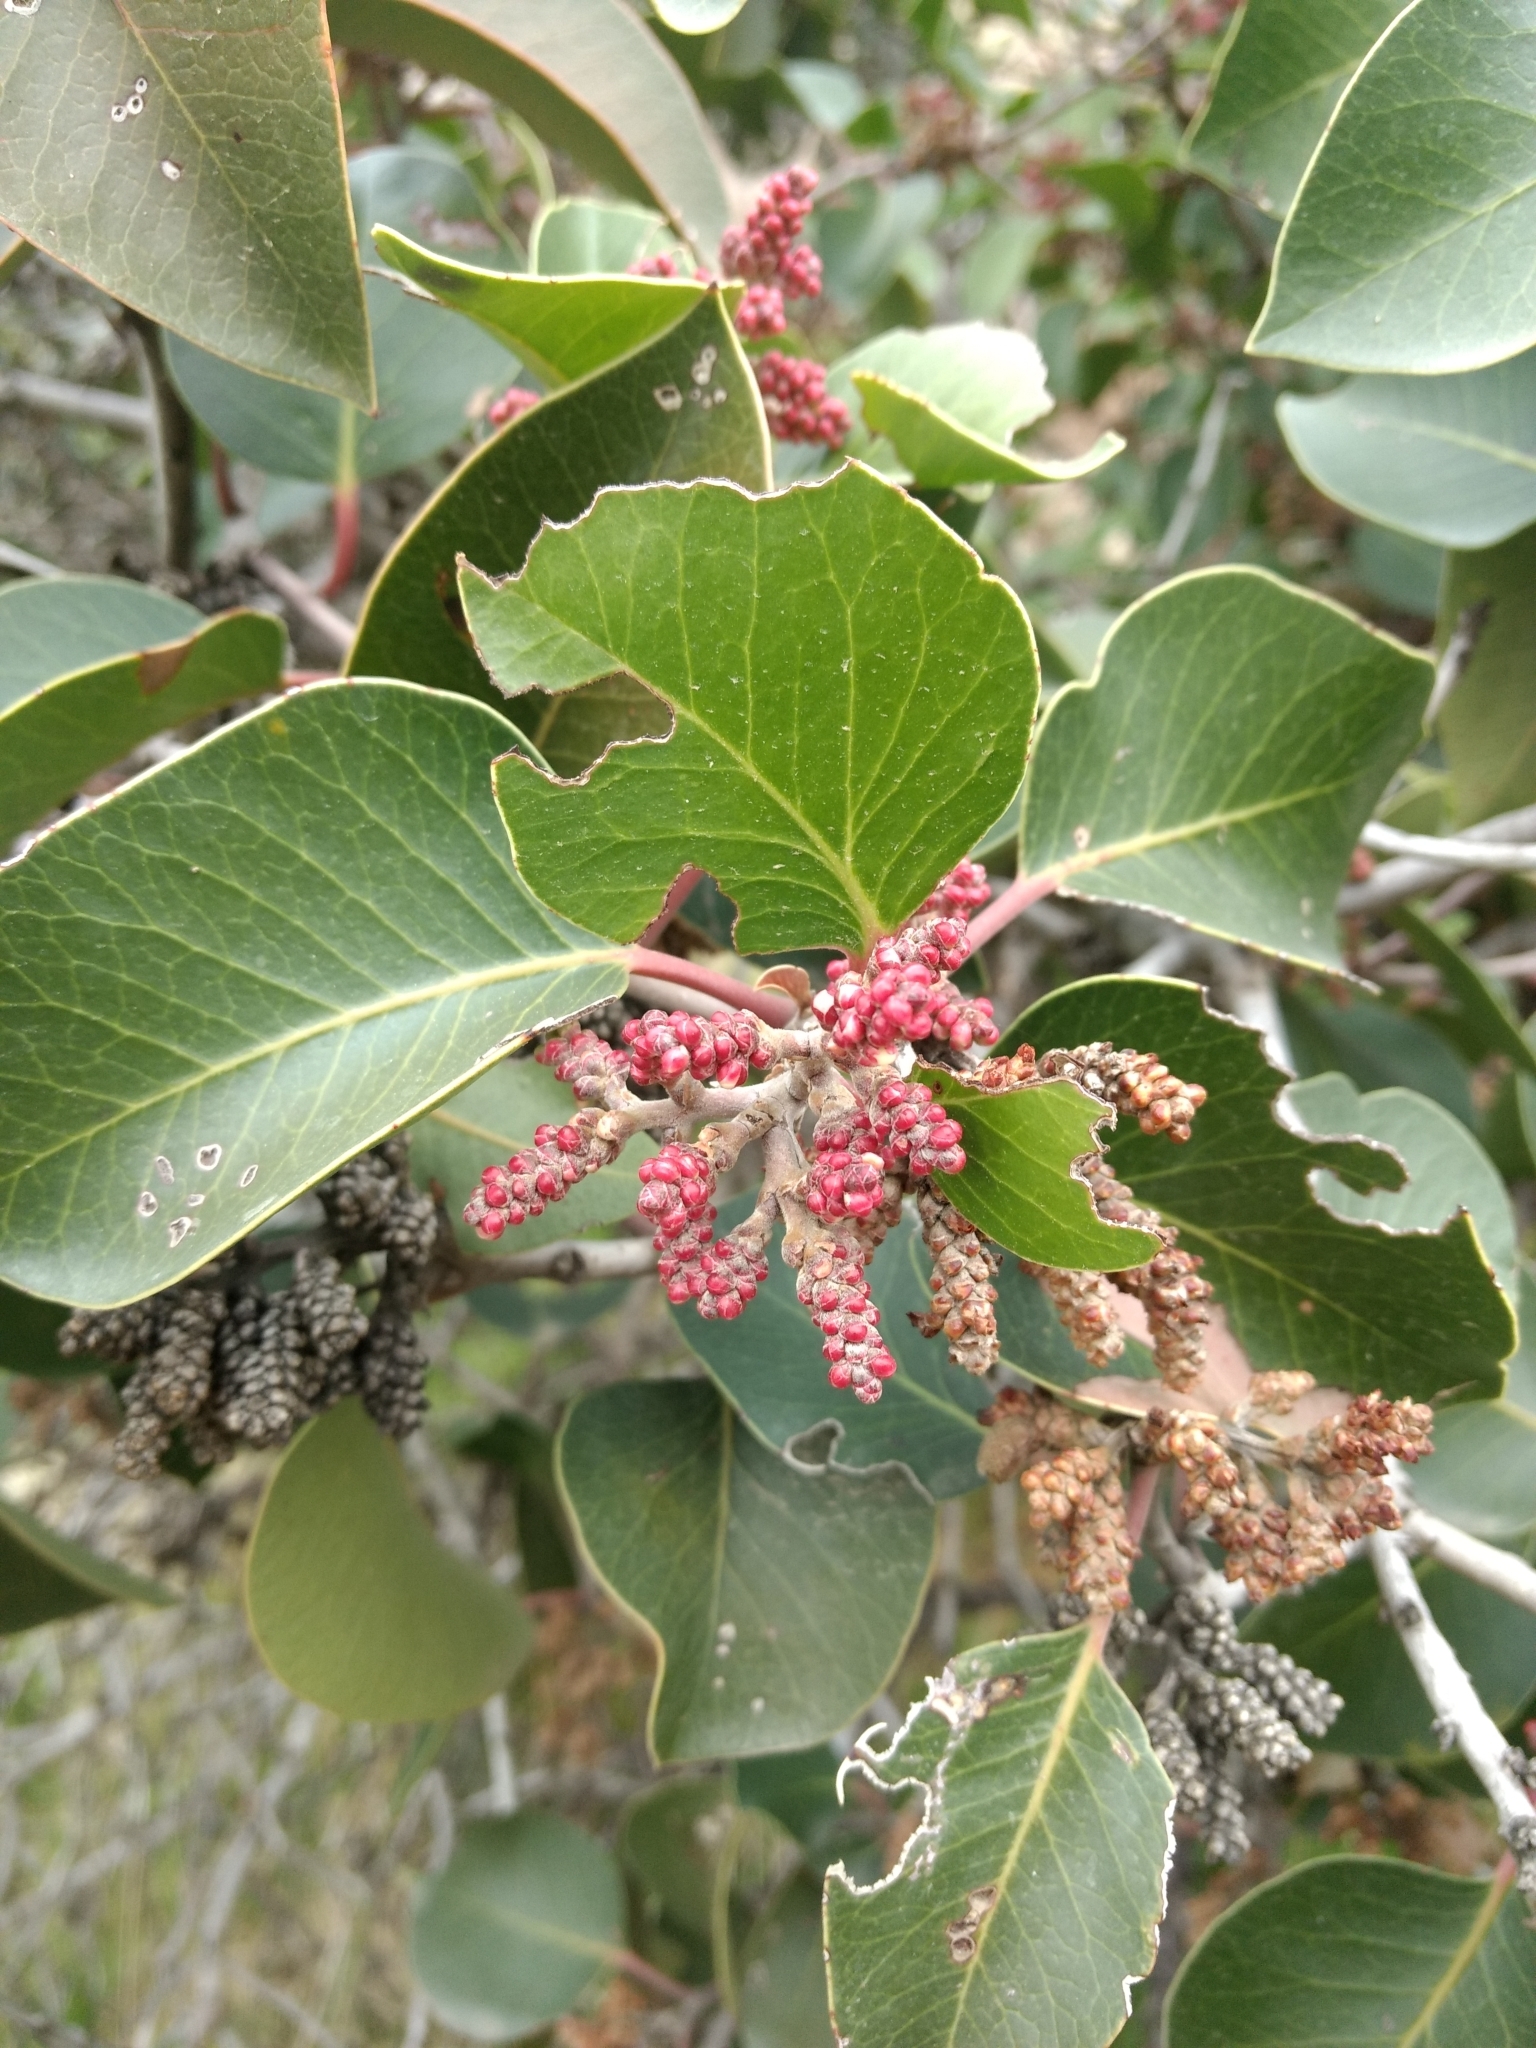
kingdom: Plantae
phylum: Tracheophyta
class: Magnoliopsida
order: Sapindales
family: Anacardiaceae
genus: Rhus
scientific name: Rhus ovata
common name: Sugar sumac
